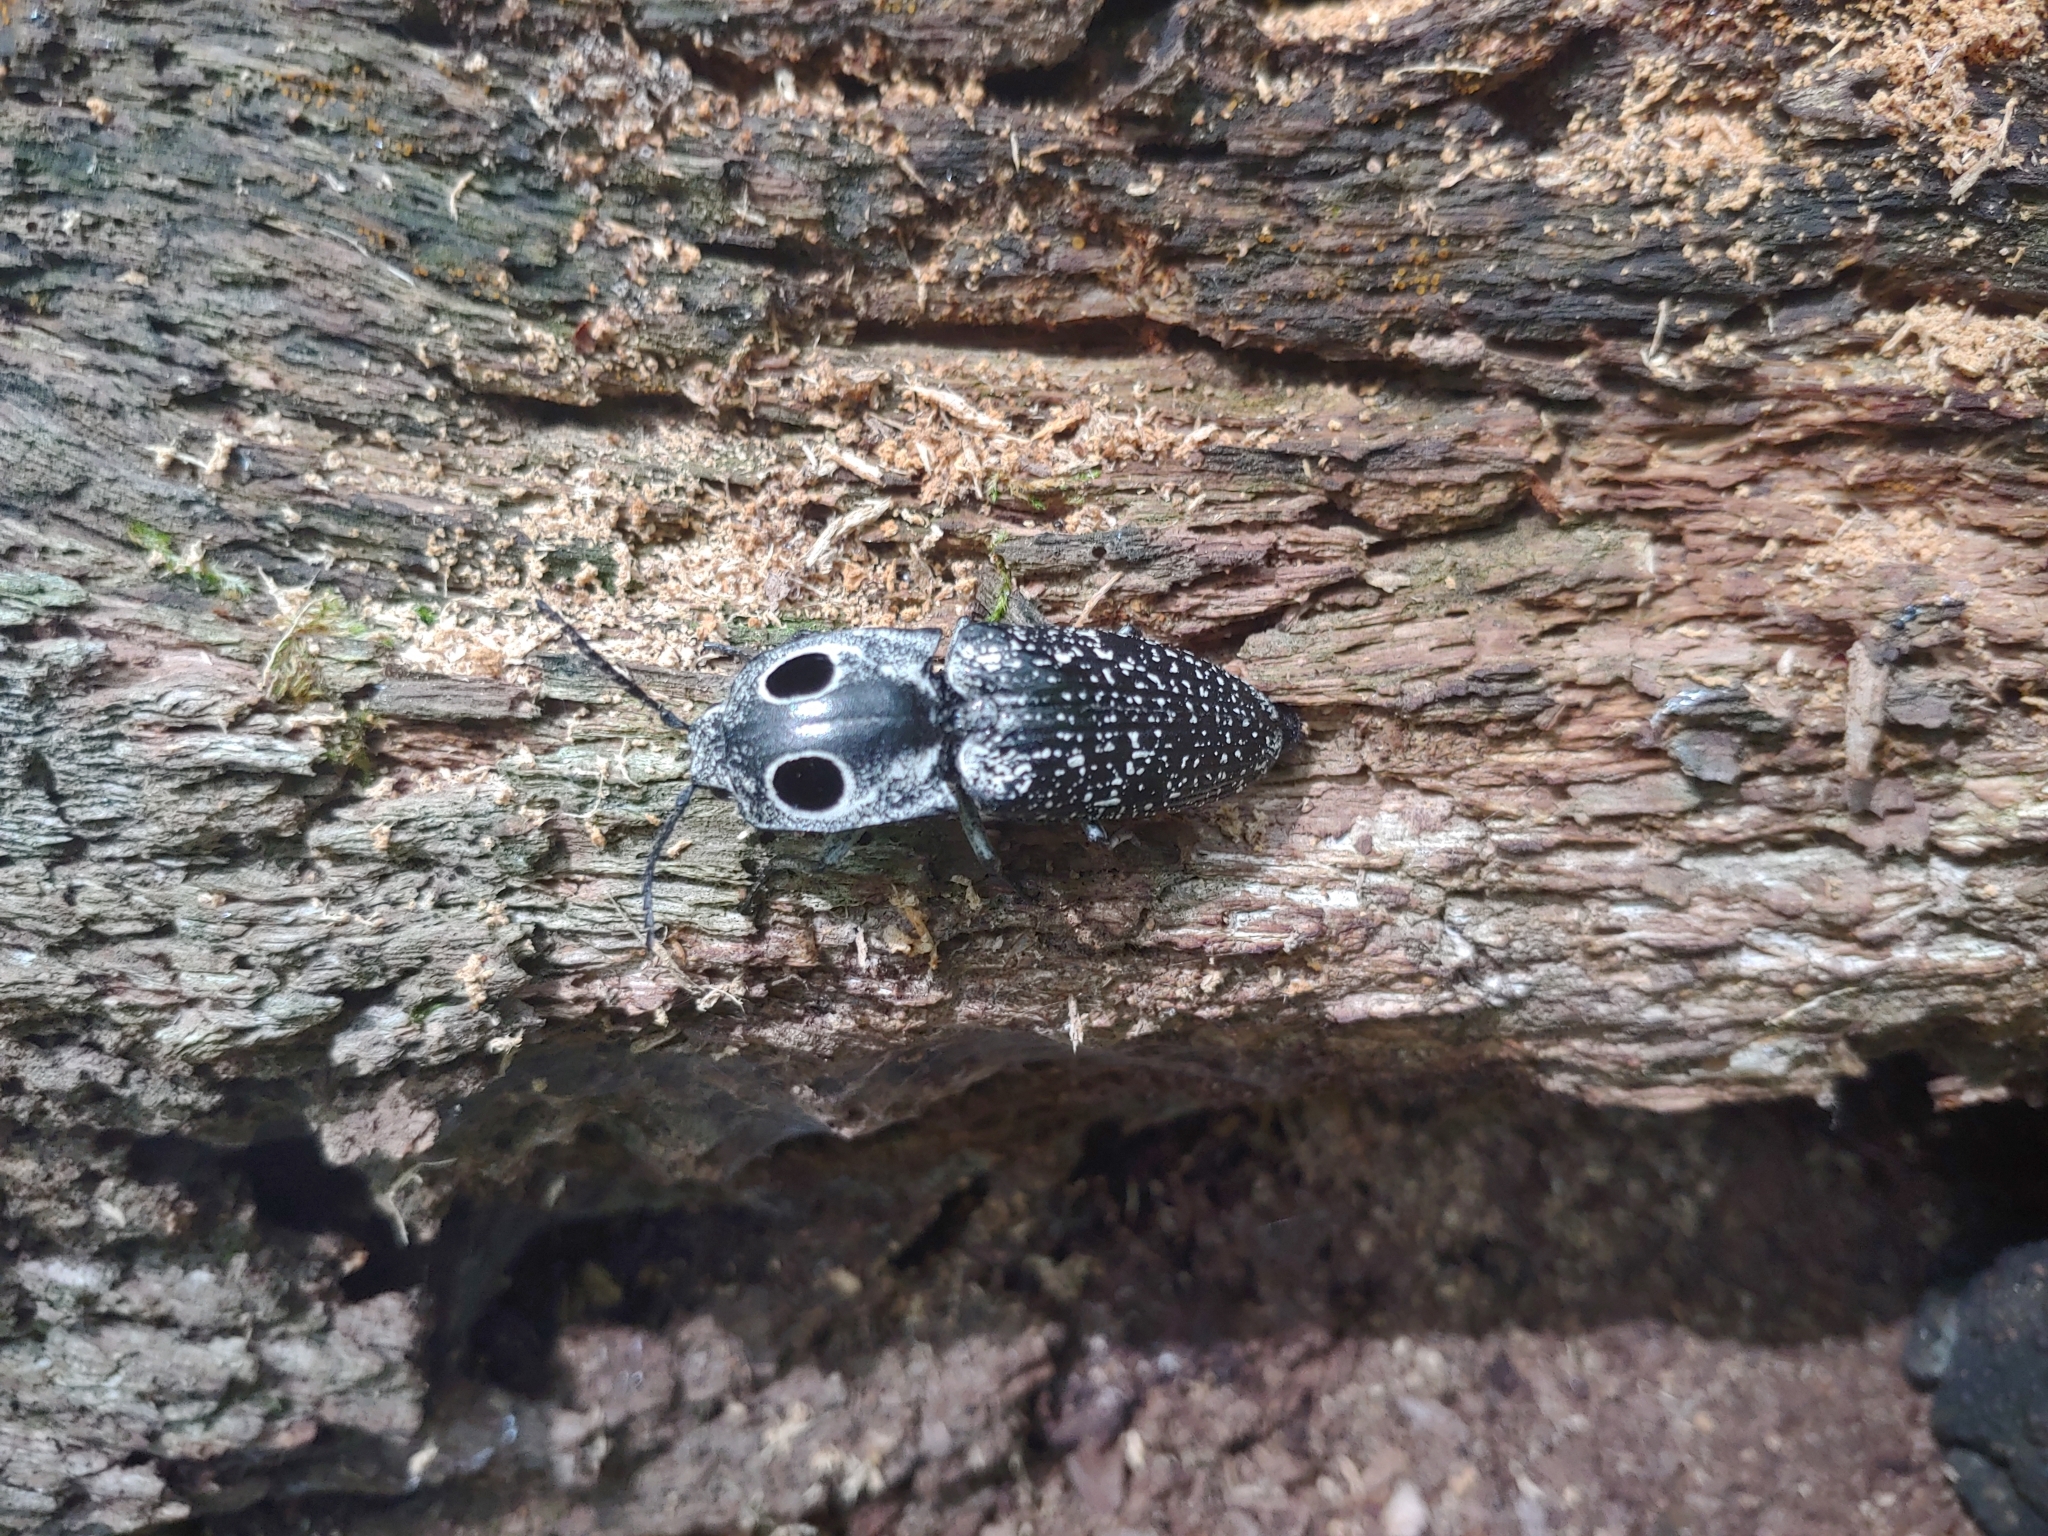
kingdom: Animalia
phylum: Arthropoda
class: Insecta
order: Coleoptera
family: Elateridae
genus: Alaus
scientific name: Alaus oculatus
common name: Eastern eyed click beetle
